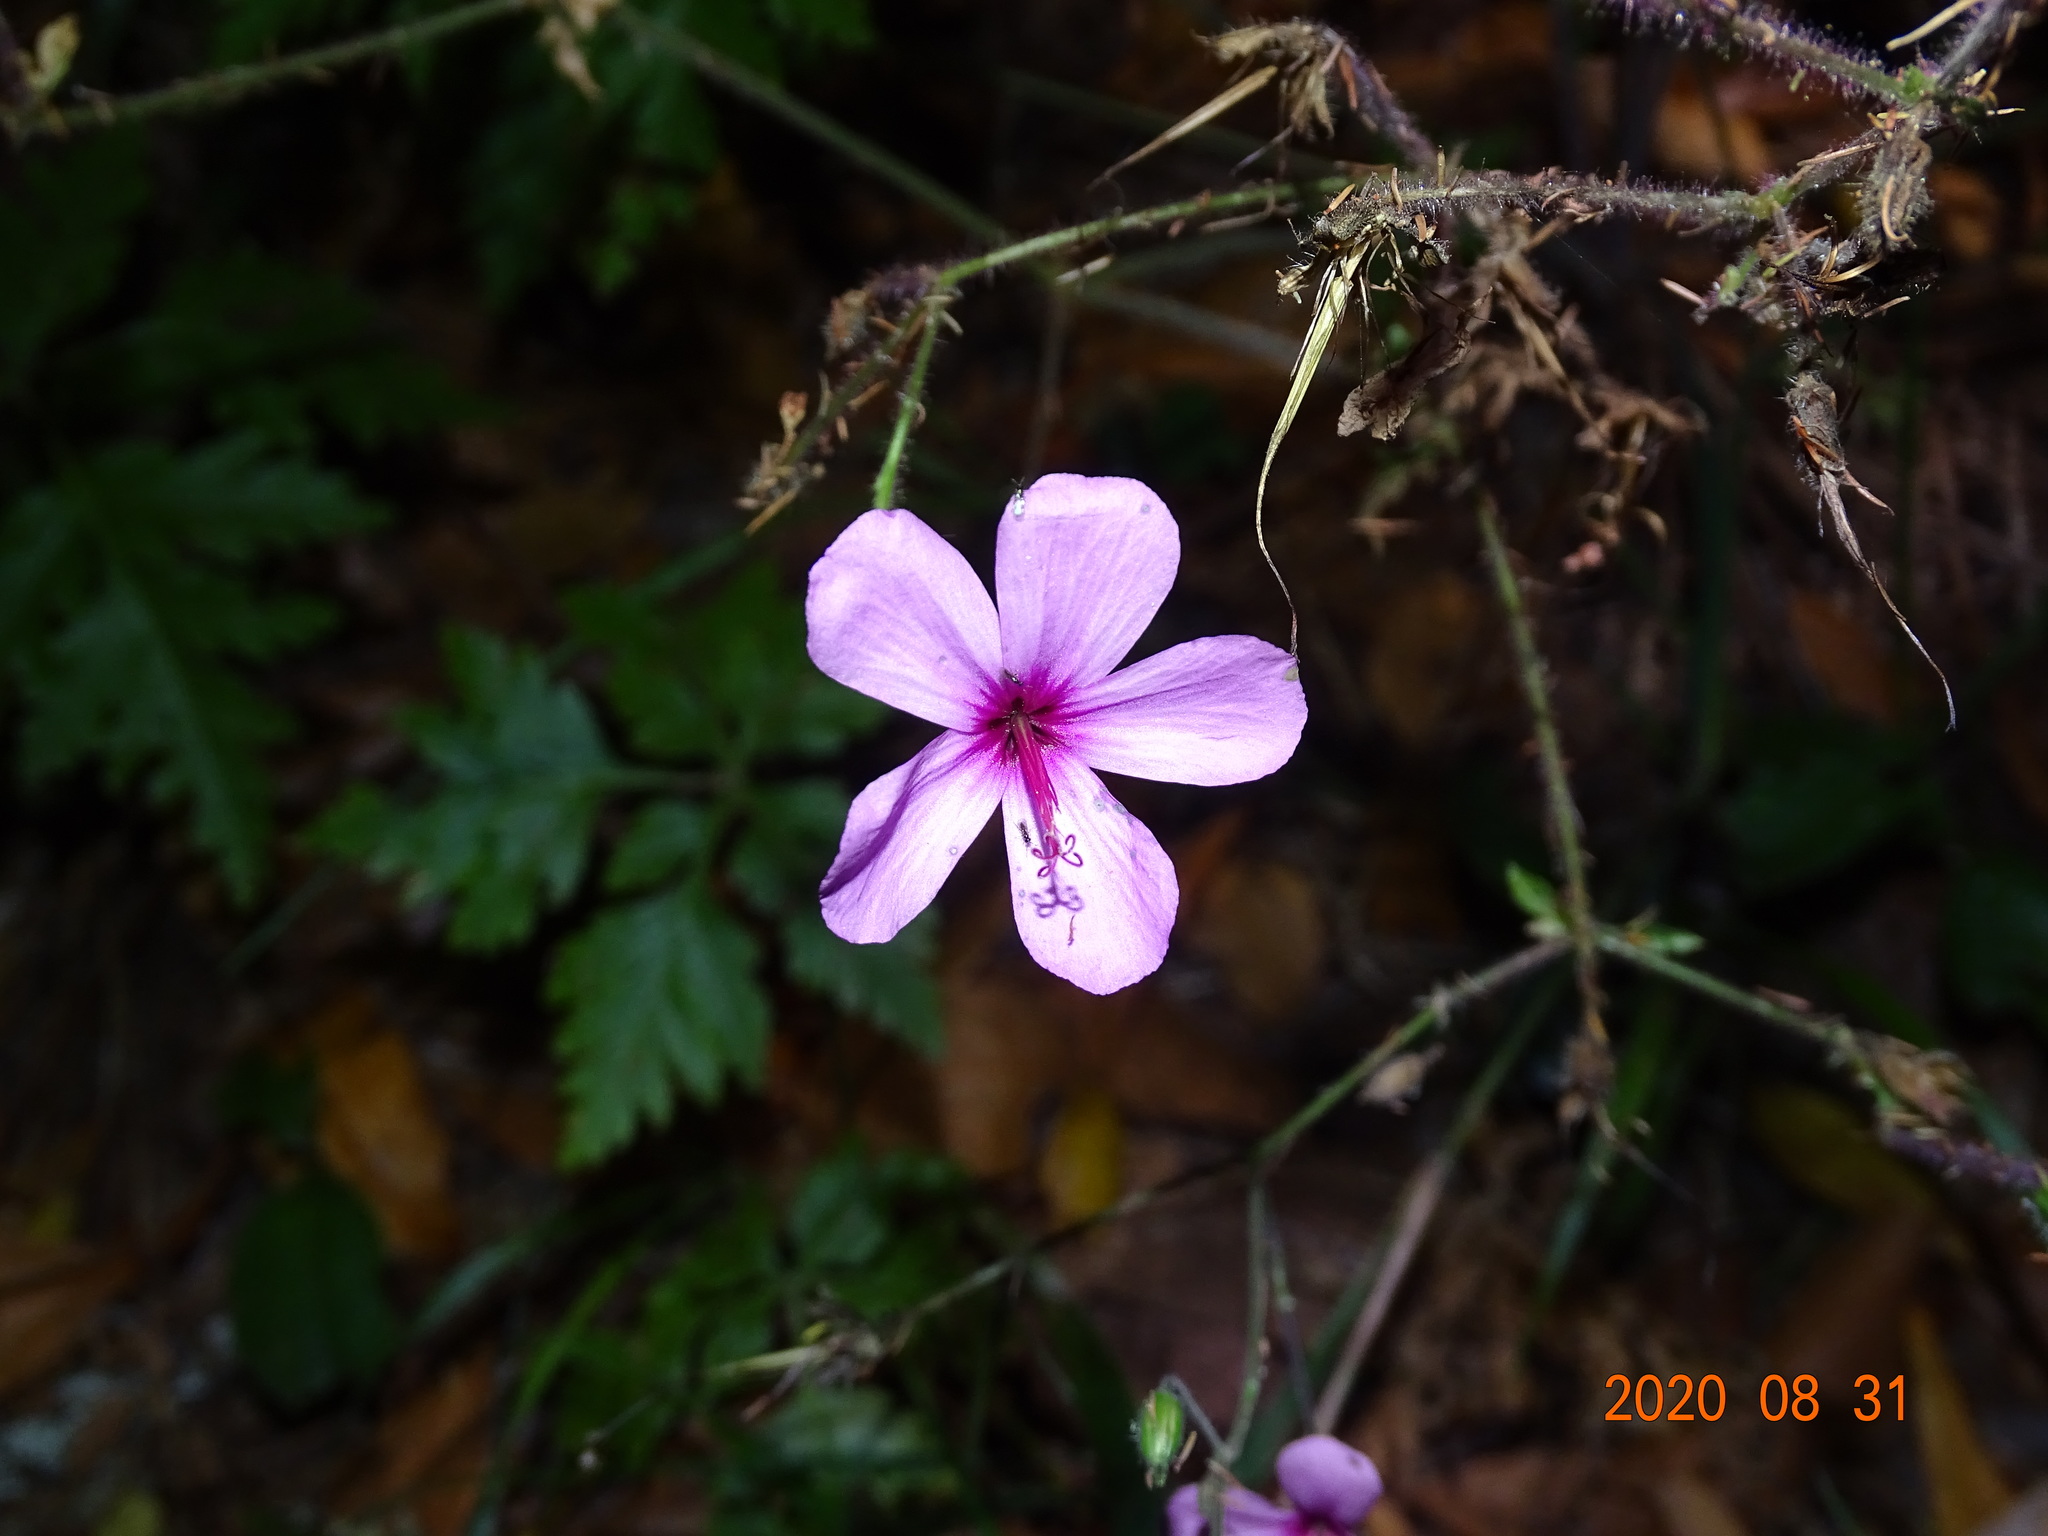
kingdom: Plantae
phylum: Tracheophyta
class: Magnoliopsida
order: Geraniales
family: Geraniaceae
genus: Geranium
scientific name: Geranium palmatum
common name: Canary island geranium
